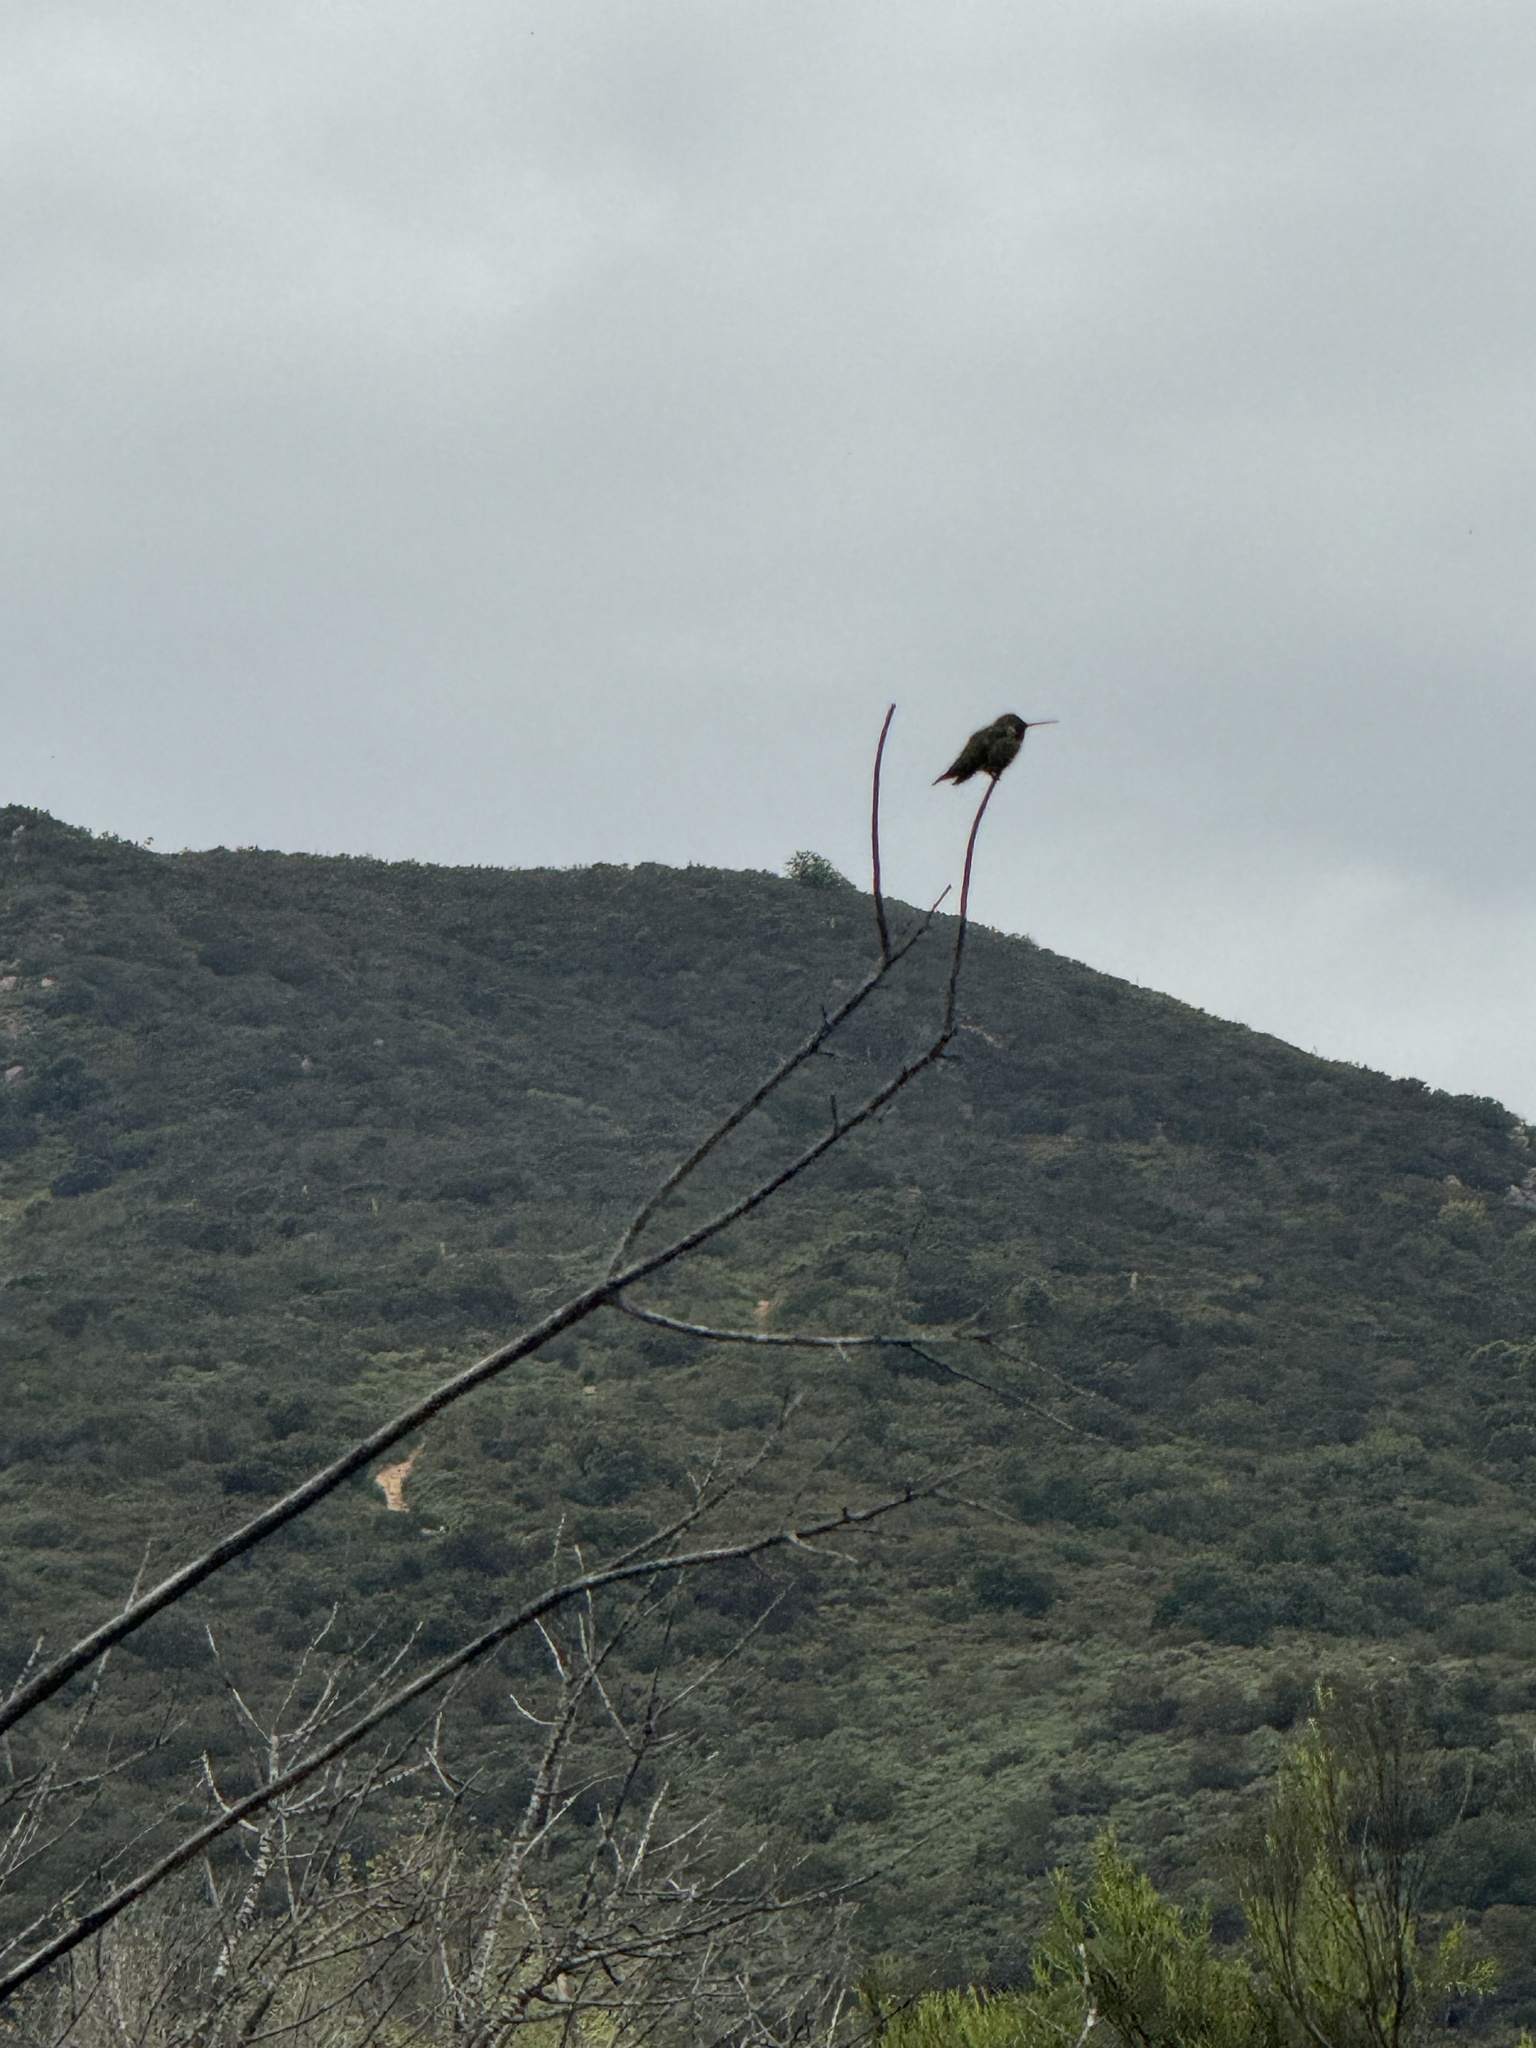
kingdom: Animalia
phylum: Chordata
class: Aves
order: Apodiformes
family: Trochilidae
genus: Calypte
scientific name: Calypte anna
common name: Anna's hummingbird
